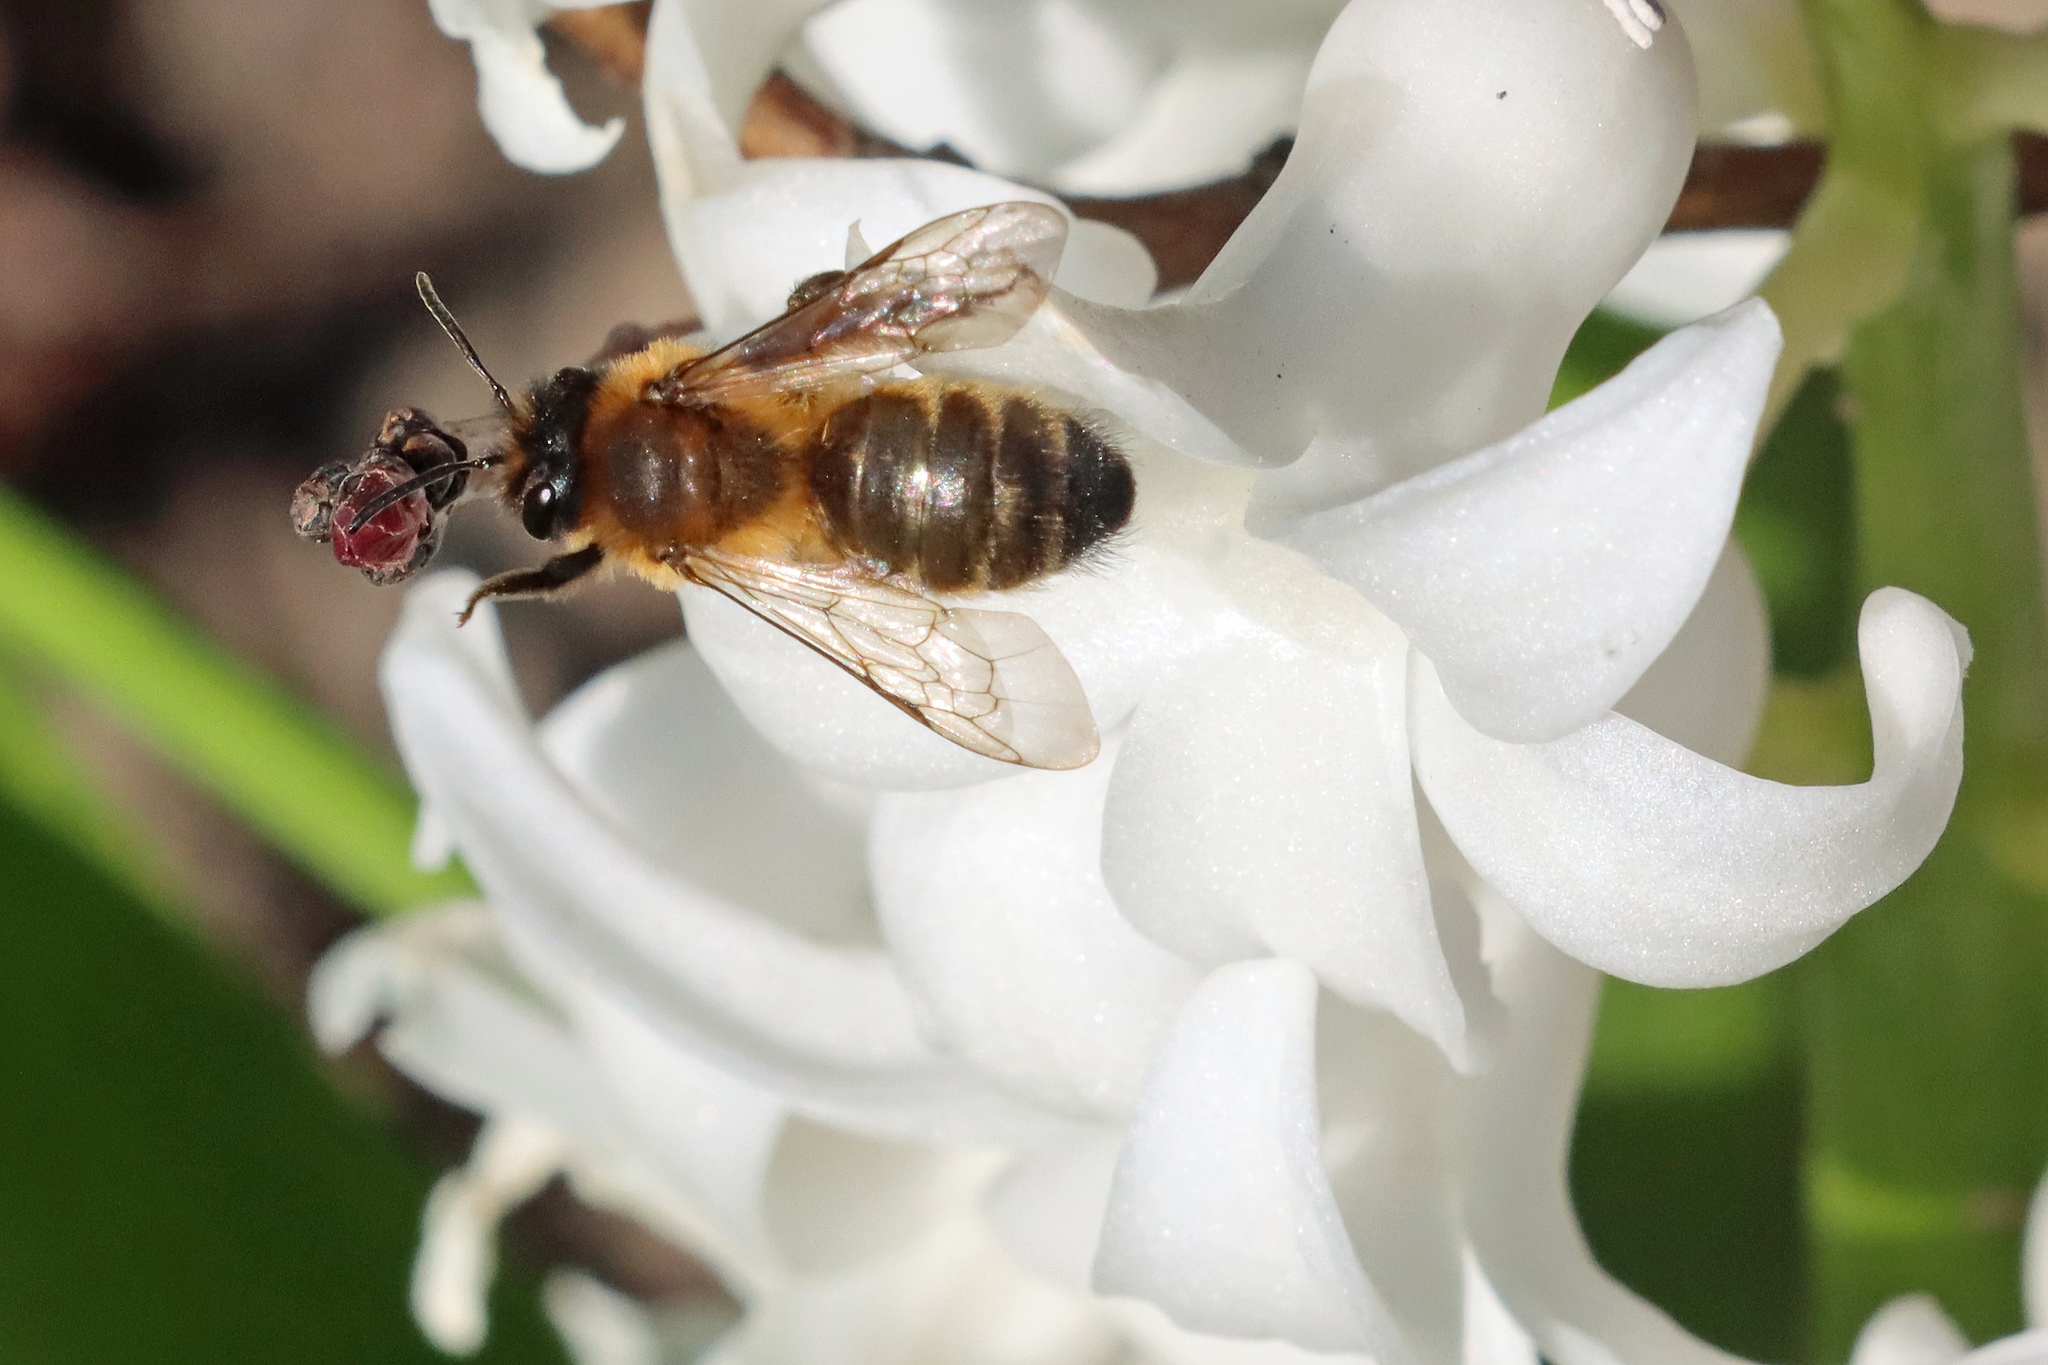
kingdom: Animalia
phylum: Arthropoda
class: Insecta
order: Hymenoptera
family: Andrenidae
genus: Andrena
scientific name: Andrena nigroaenea
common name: Buffish mining bee
